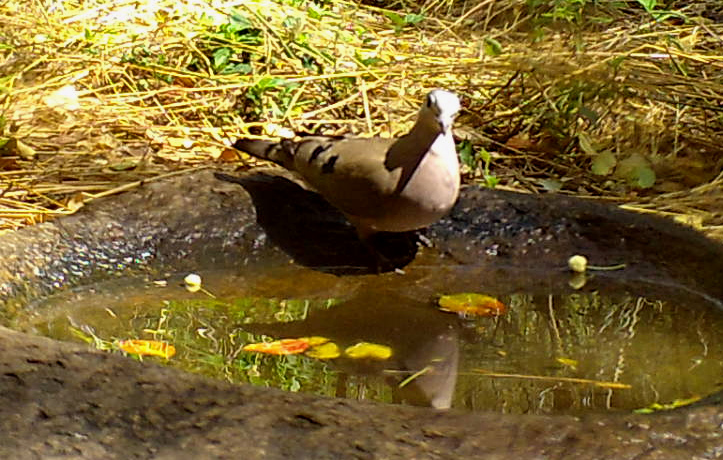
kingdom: Animalia
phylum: Chordata
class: Aves
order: Columbiformes
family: Columbidae
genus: Turtur
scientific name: Turtur chalcospilos
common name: Emerald-spotted wood dove
